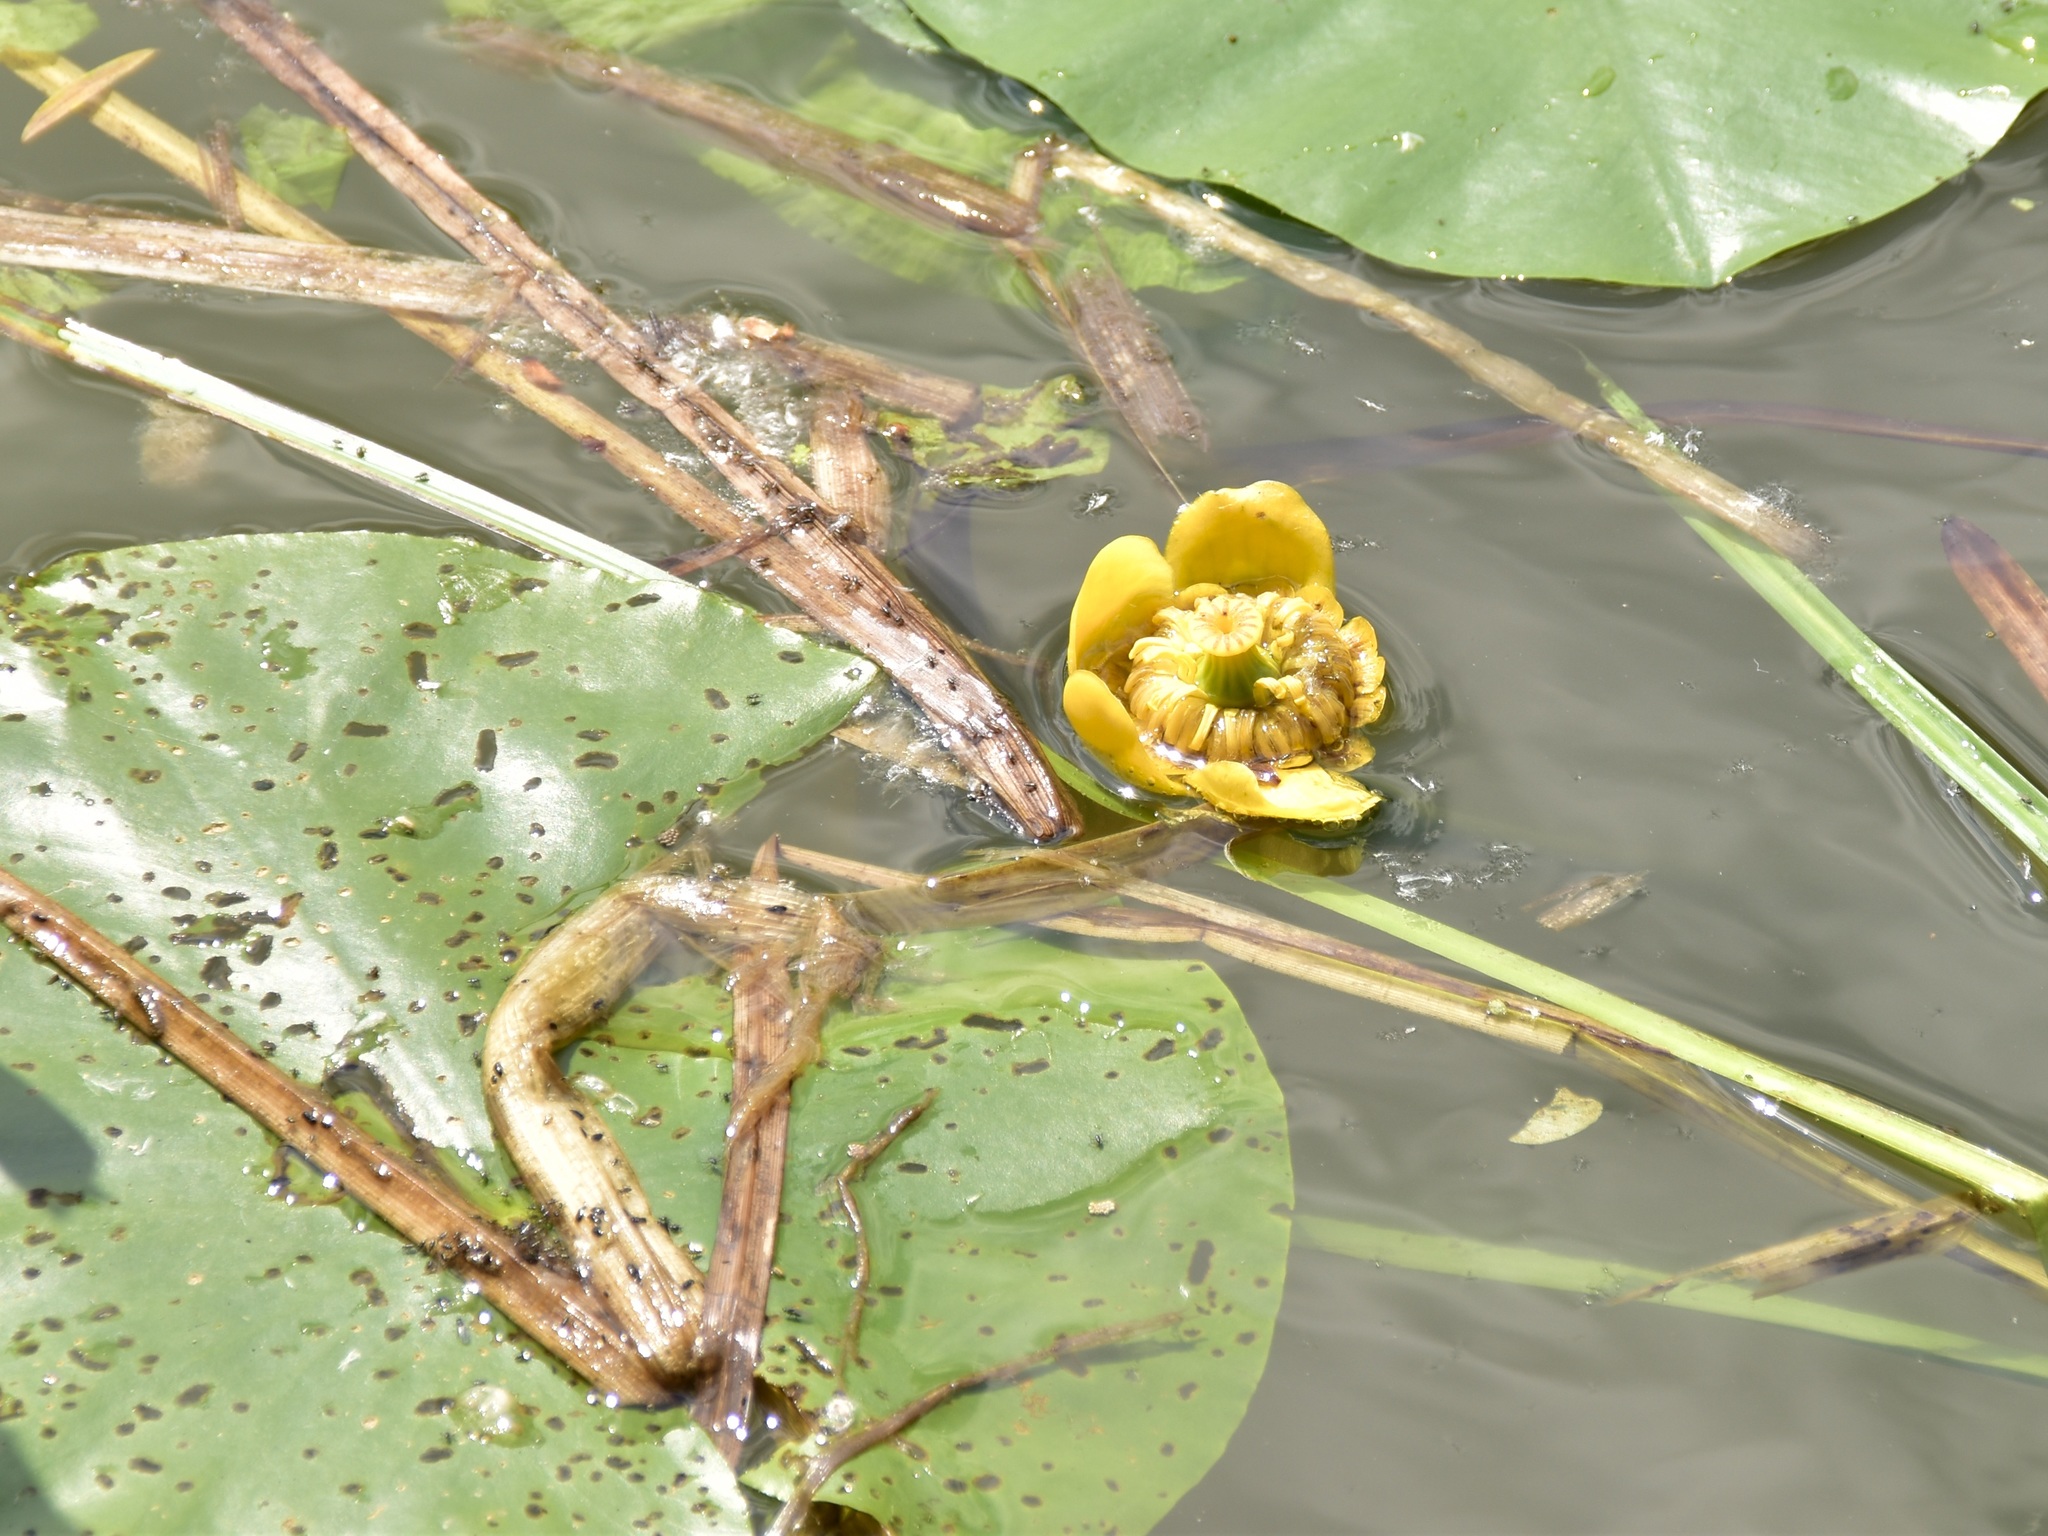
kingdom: Plantae
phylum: Tracheophyta
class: Magnoliopsida
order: Nymphaeales
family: Nymphaeaceae
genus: Nuphar
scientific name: Nuphar lutea
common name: Yellow water-lily
